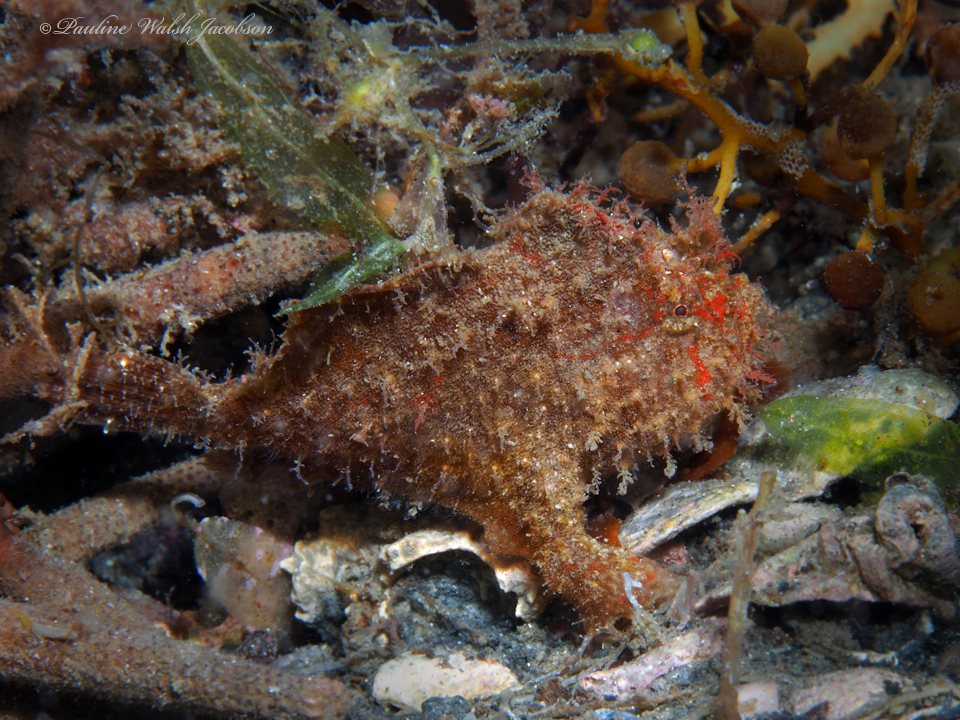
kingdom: Animalia
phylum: Chordata
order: Lophiiformes
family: Antennariidae
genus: Antennarius
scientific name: Antennarius pauciradiatus
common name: Dwarf frogfish
